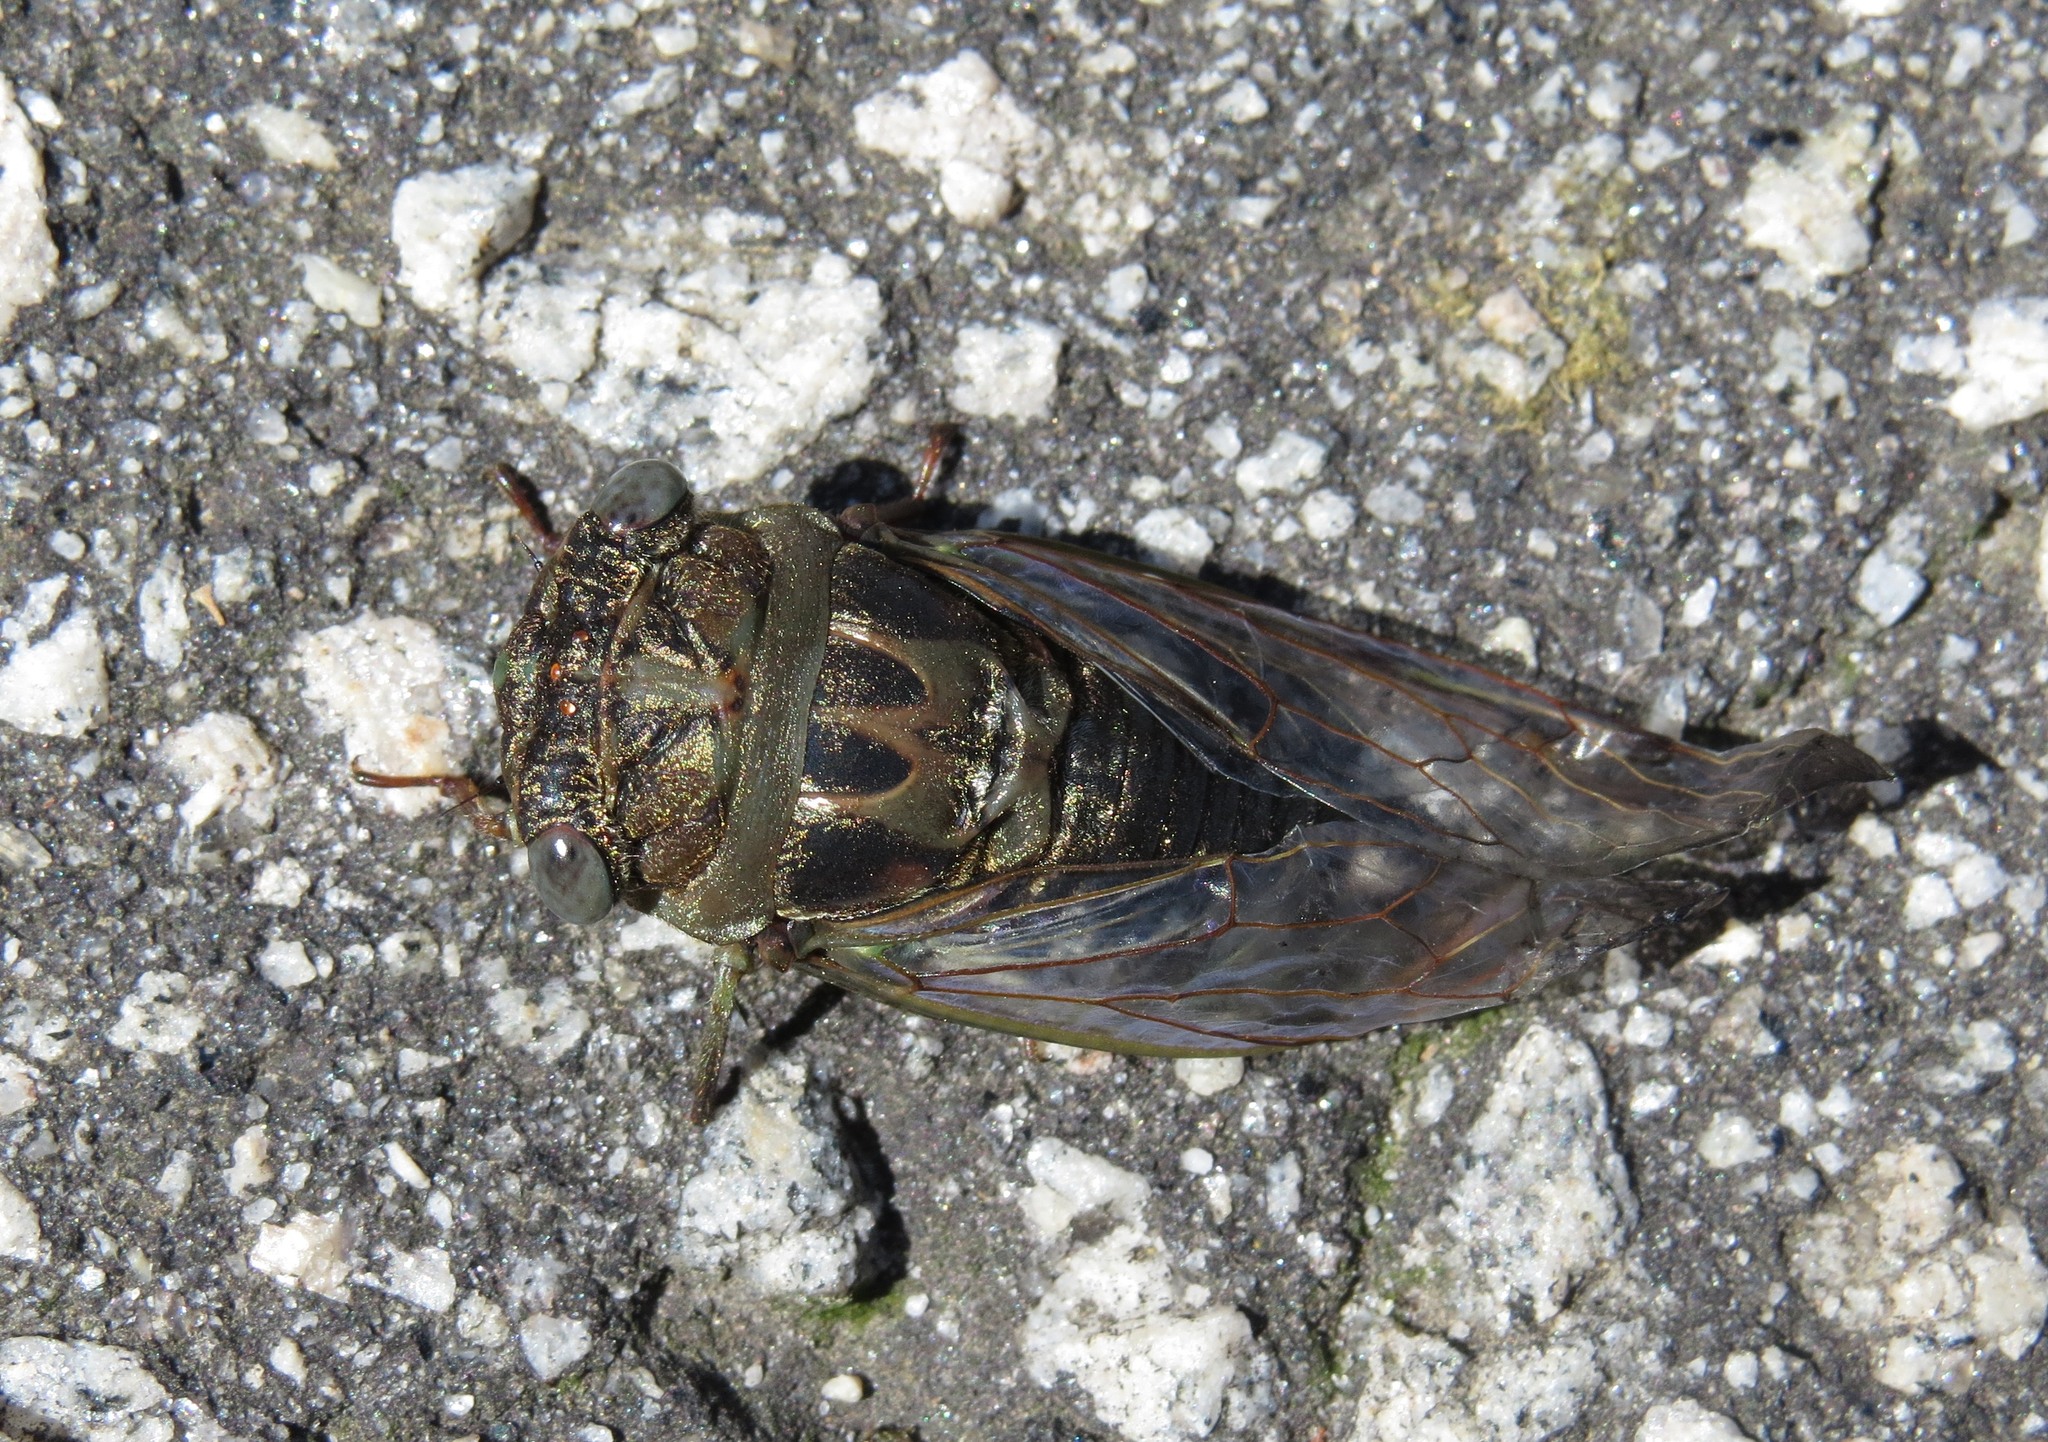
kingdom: Animalia
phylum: Arthropoda
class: Insecta
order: Hemiptera
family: Cicadidae
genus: Neotibicen
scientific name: Neotibicen davisi
